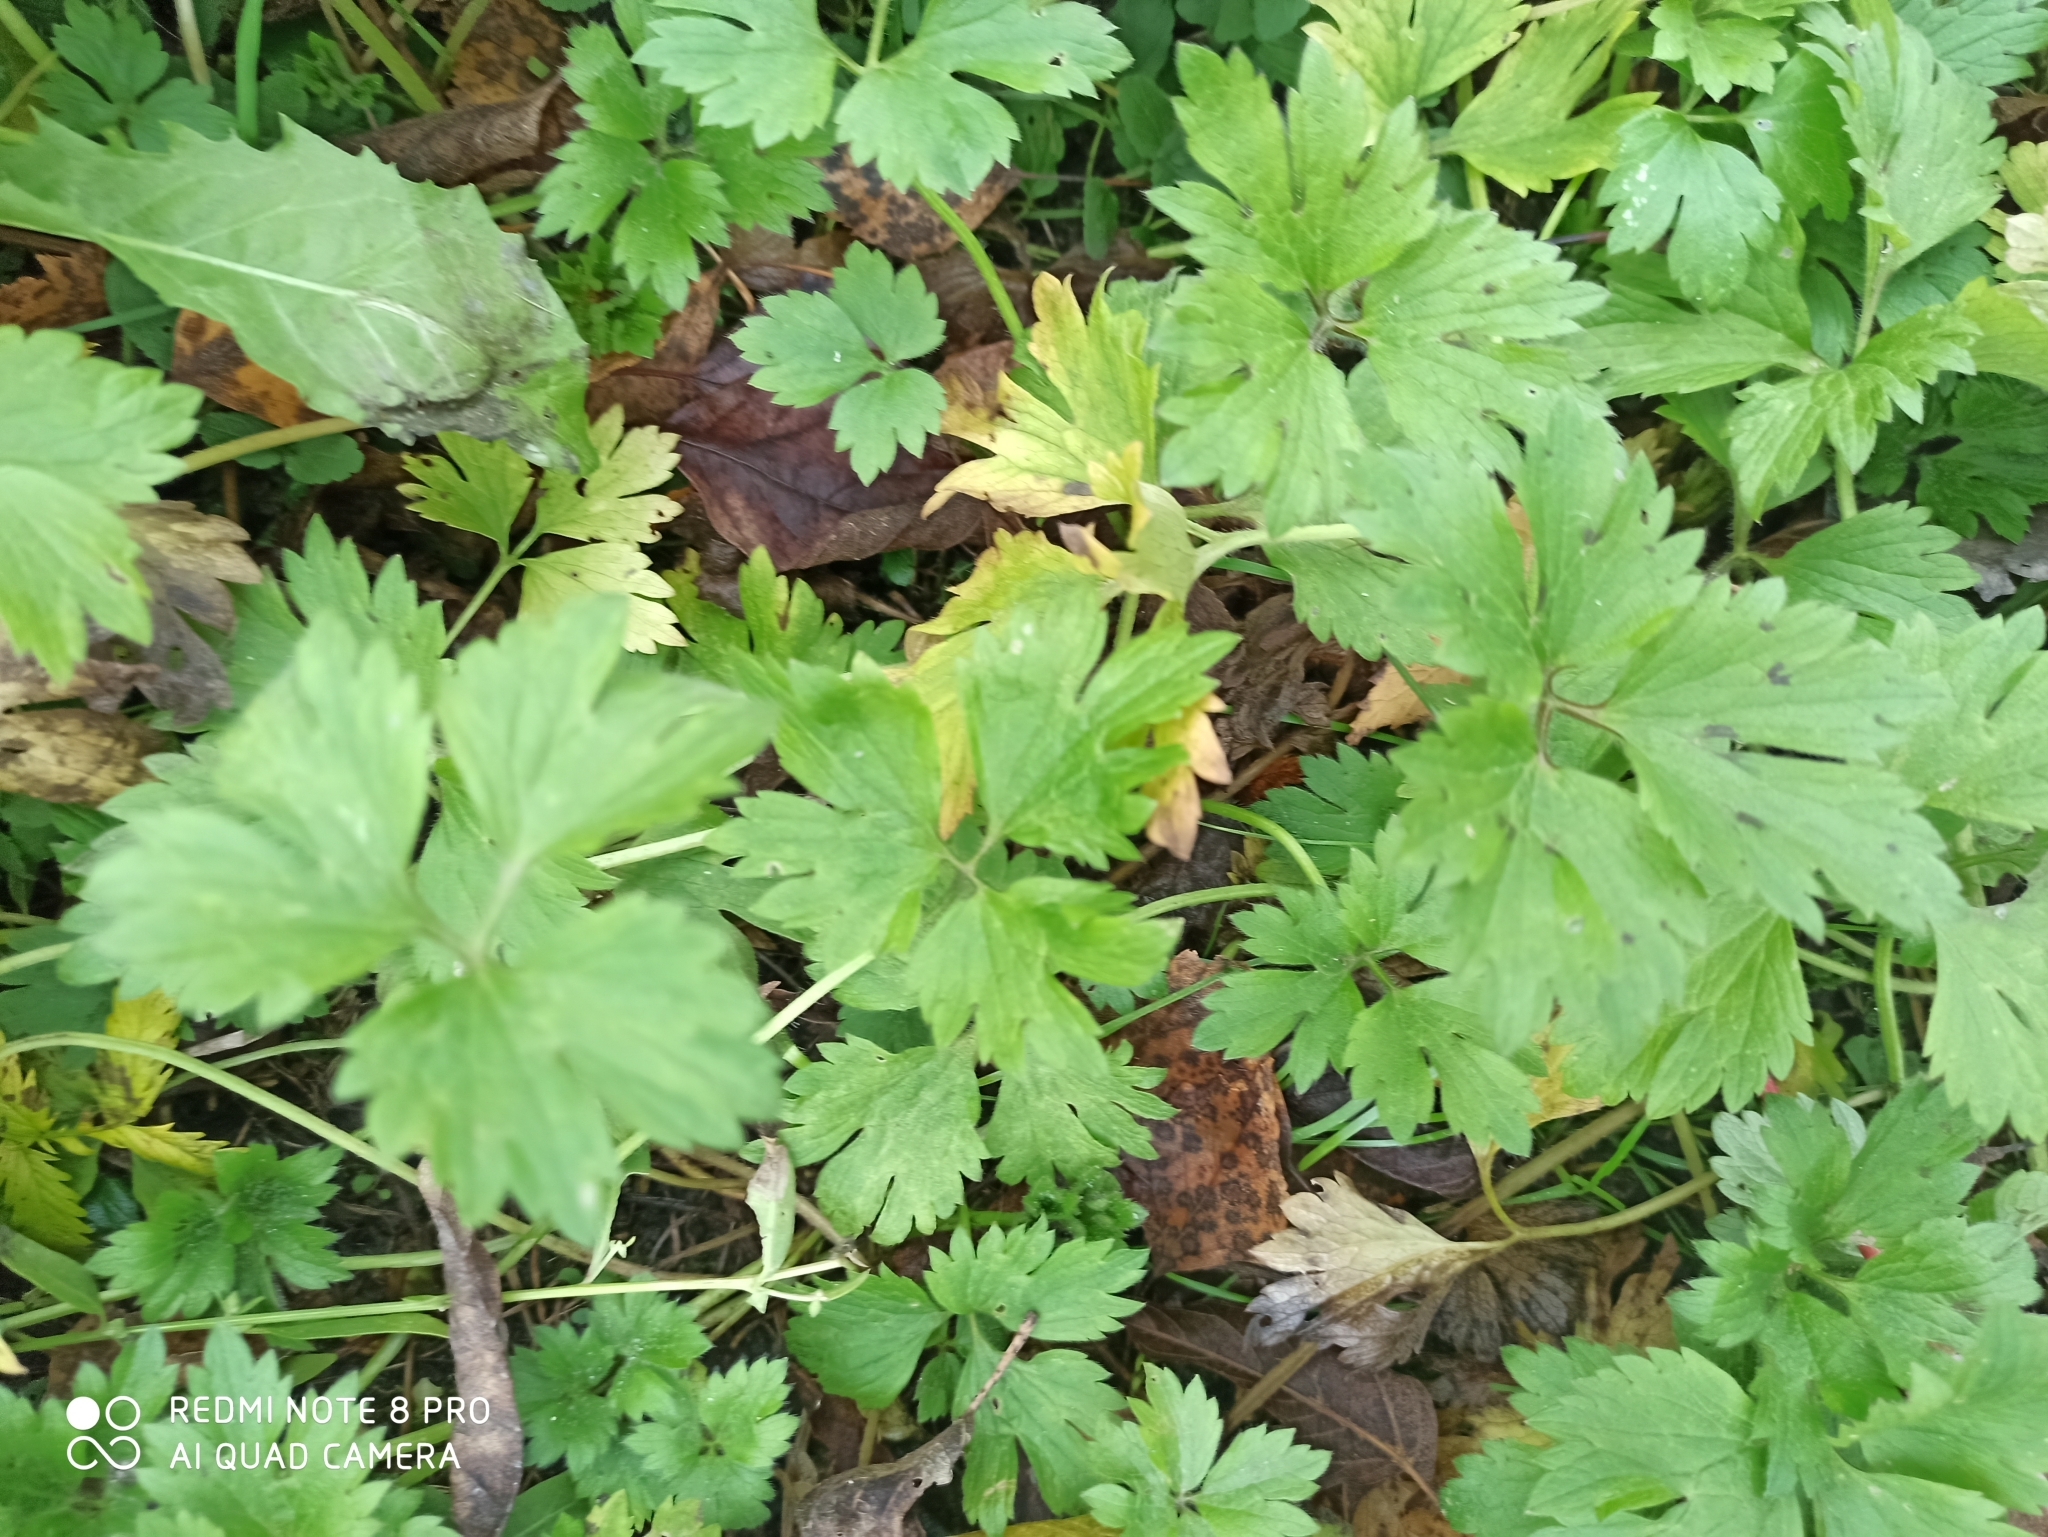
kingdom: Plantae
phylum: Tracheophyta
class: Magnoliopsida
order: Ranunculales
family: Ranunculaceae
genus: Ranunculus
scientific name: Ranunculus repens
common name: Creeping buttercup
